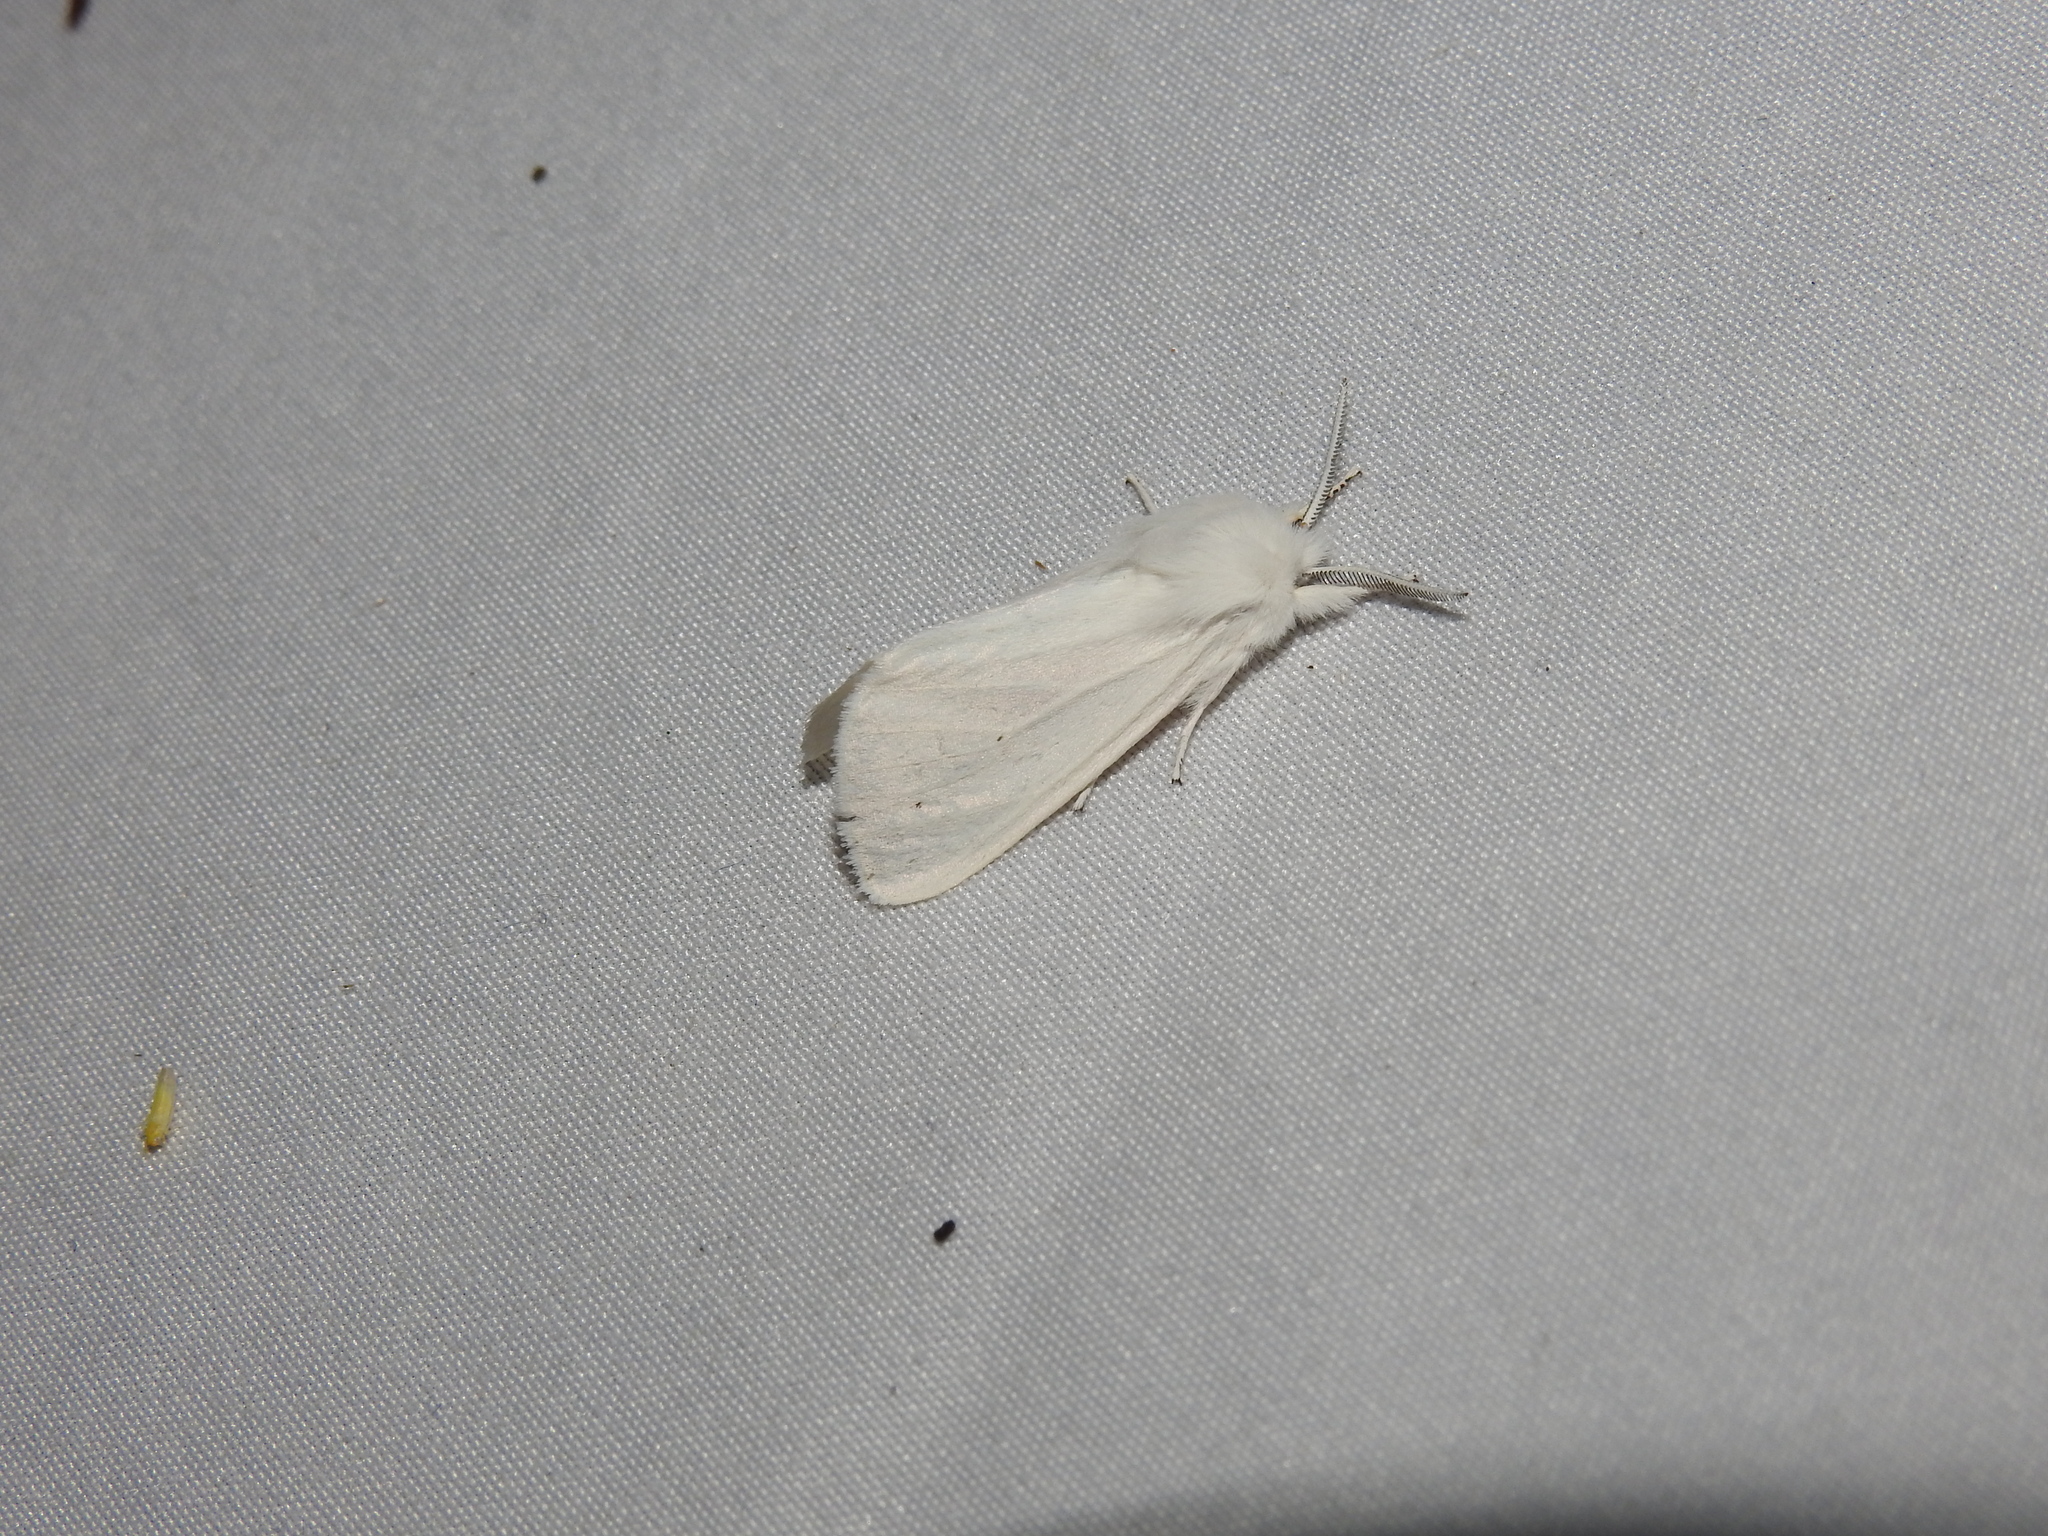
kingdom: Animalia
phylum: Arthropoda
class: Insecta
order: Lepidoptera
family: Erebidae
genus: Spilosoma
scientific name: Spilosoma virginica
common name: Virginia tiger moth
